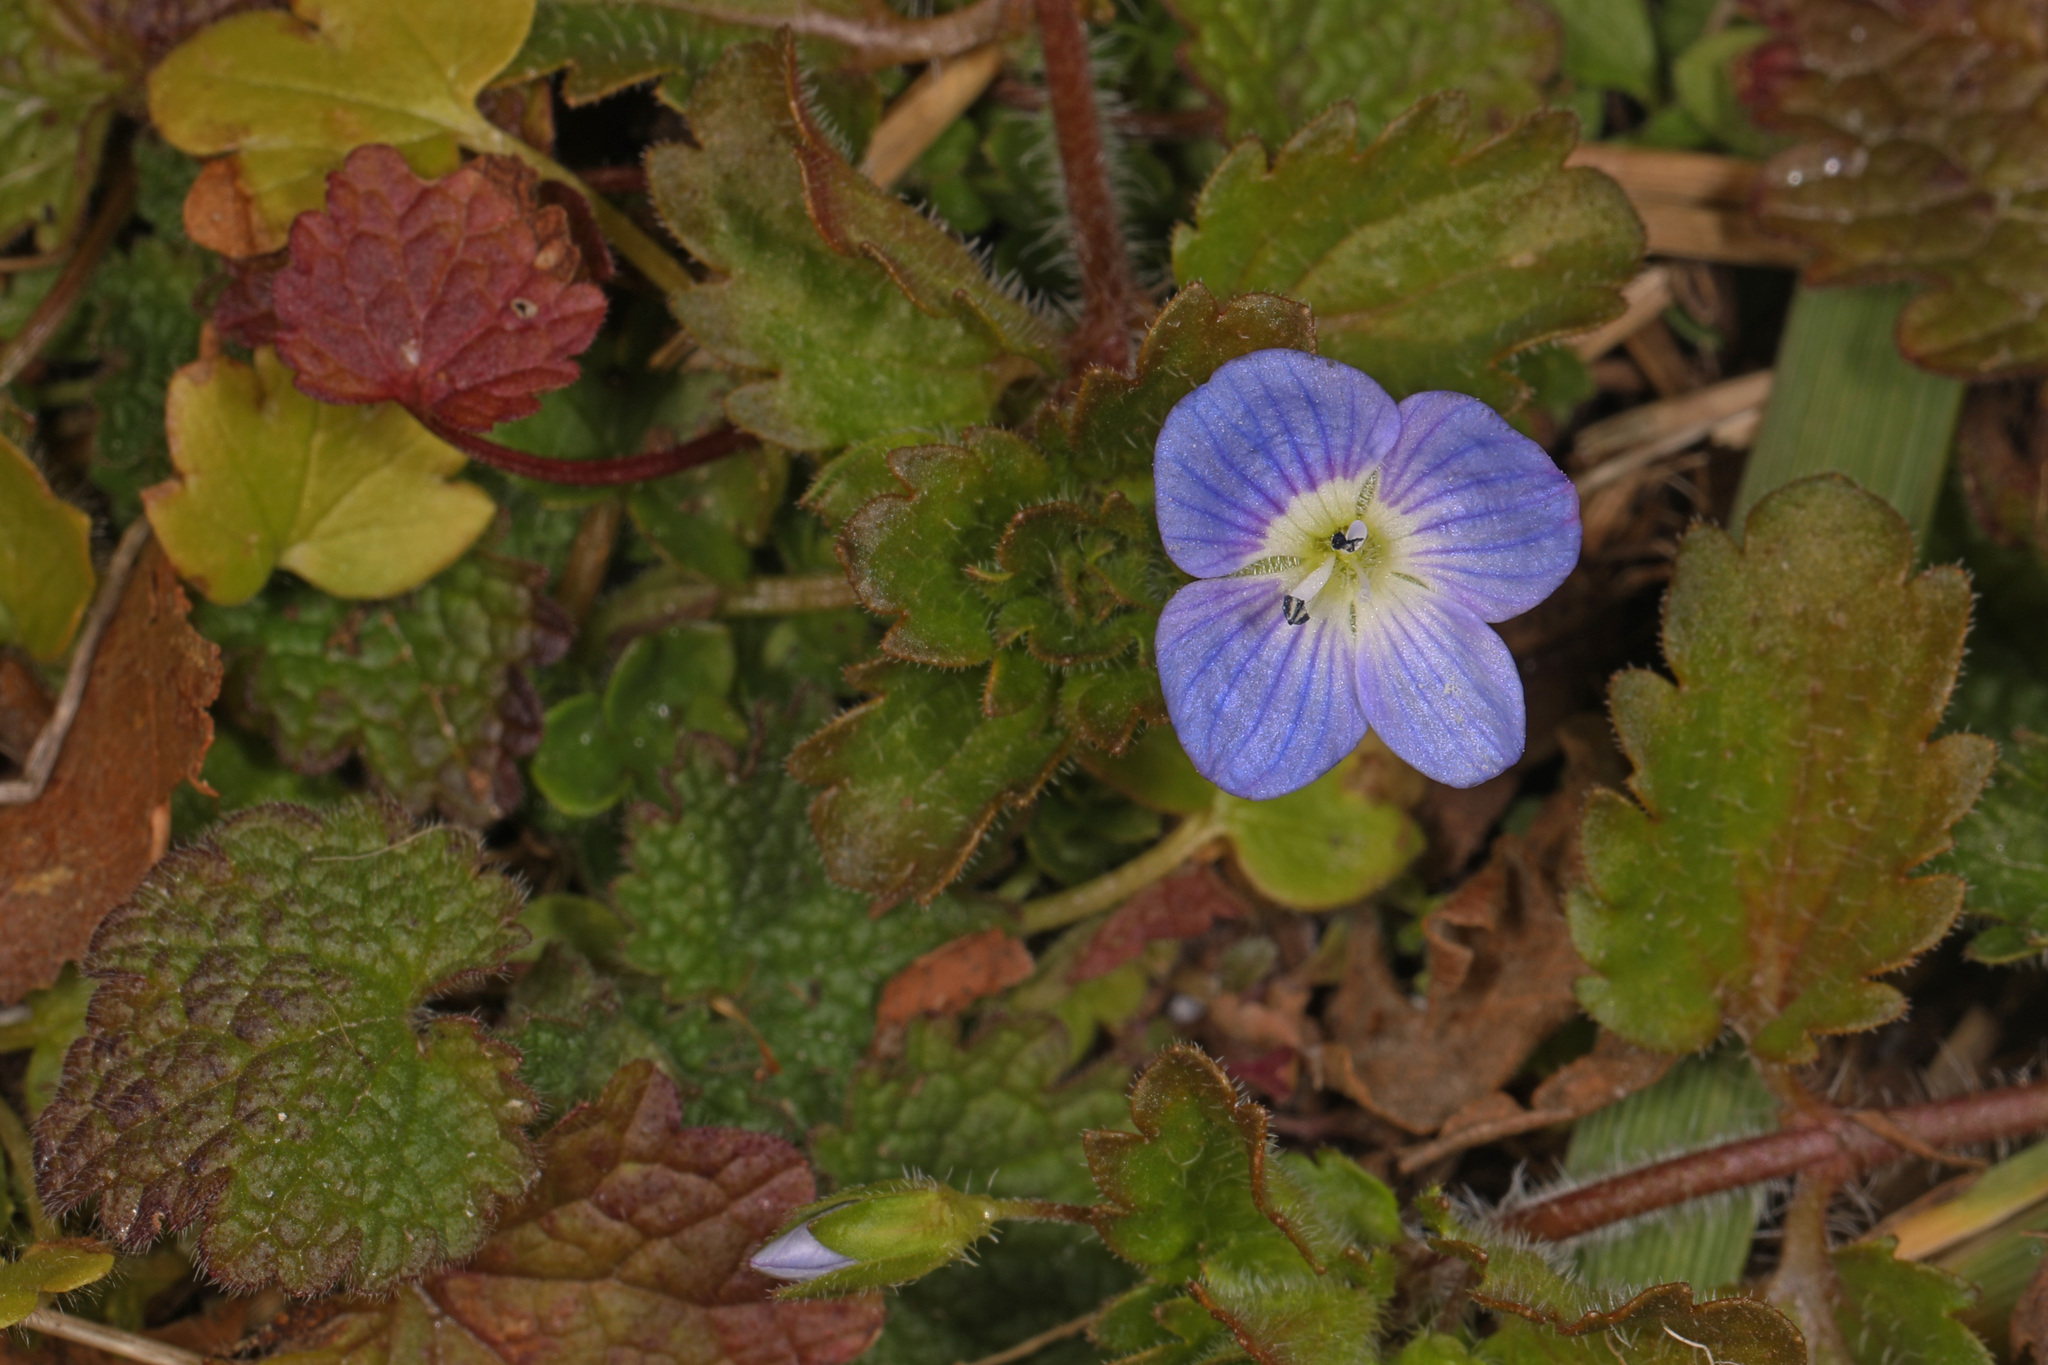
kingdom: Plantae
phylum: Tracheophyta
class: Magnoliopsida
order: Lamiales
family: Plantaginaceae
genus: Veronica
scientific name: Veronica persica
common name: Common field-speedwell
